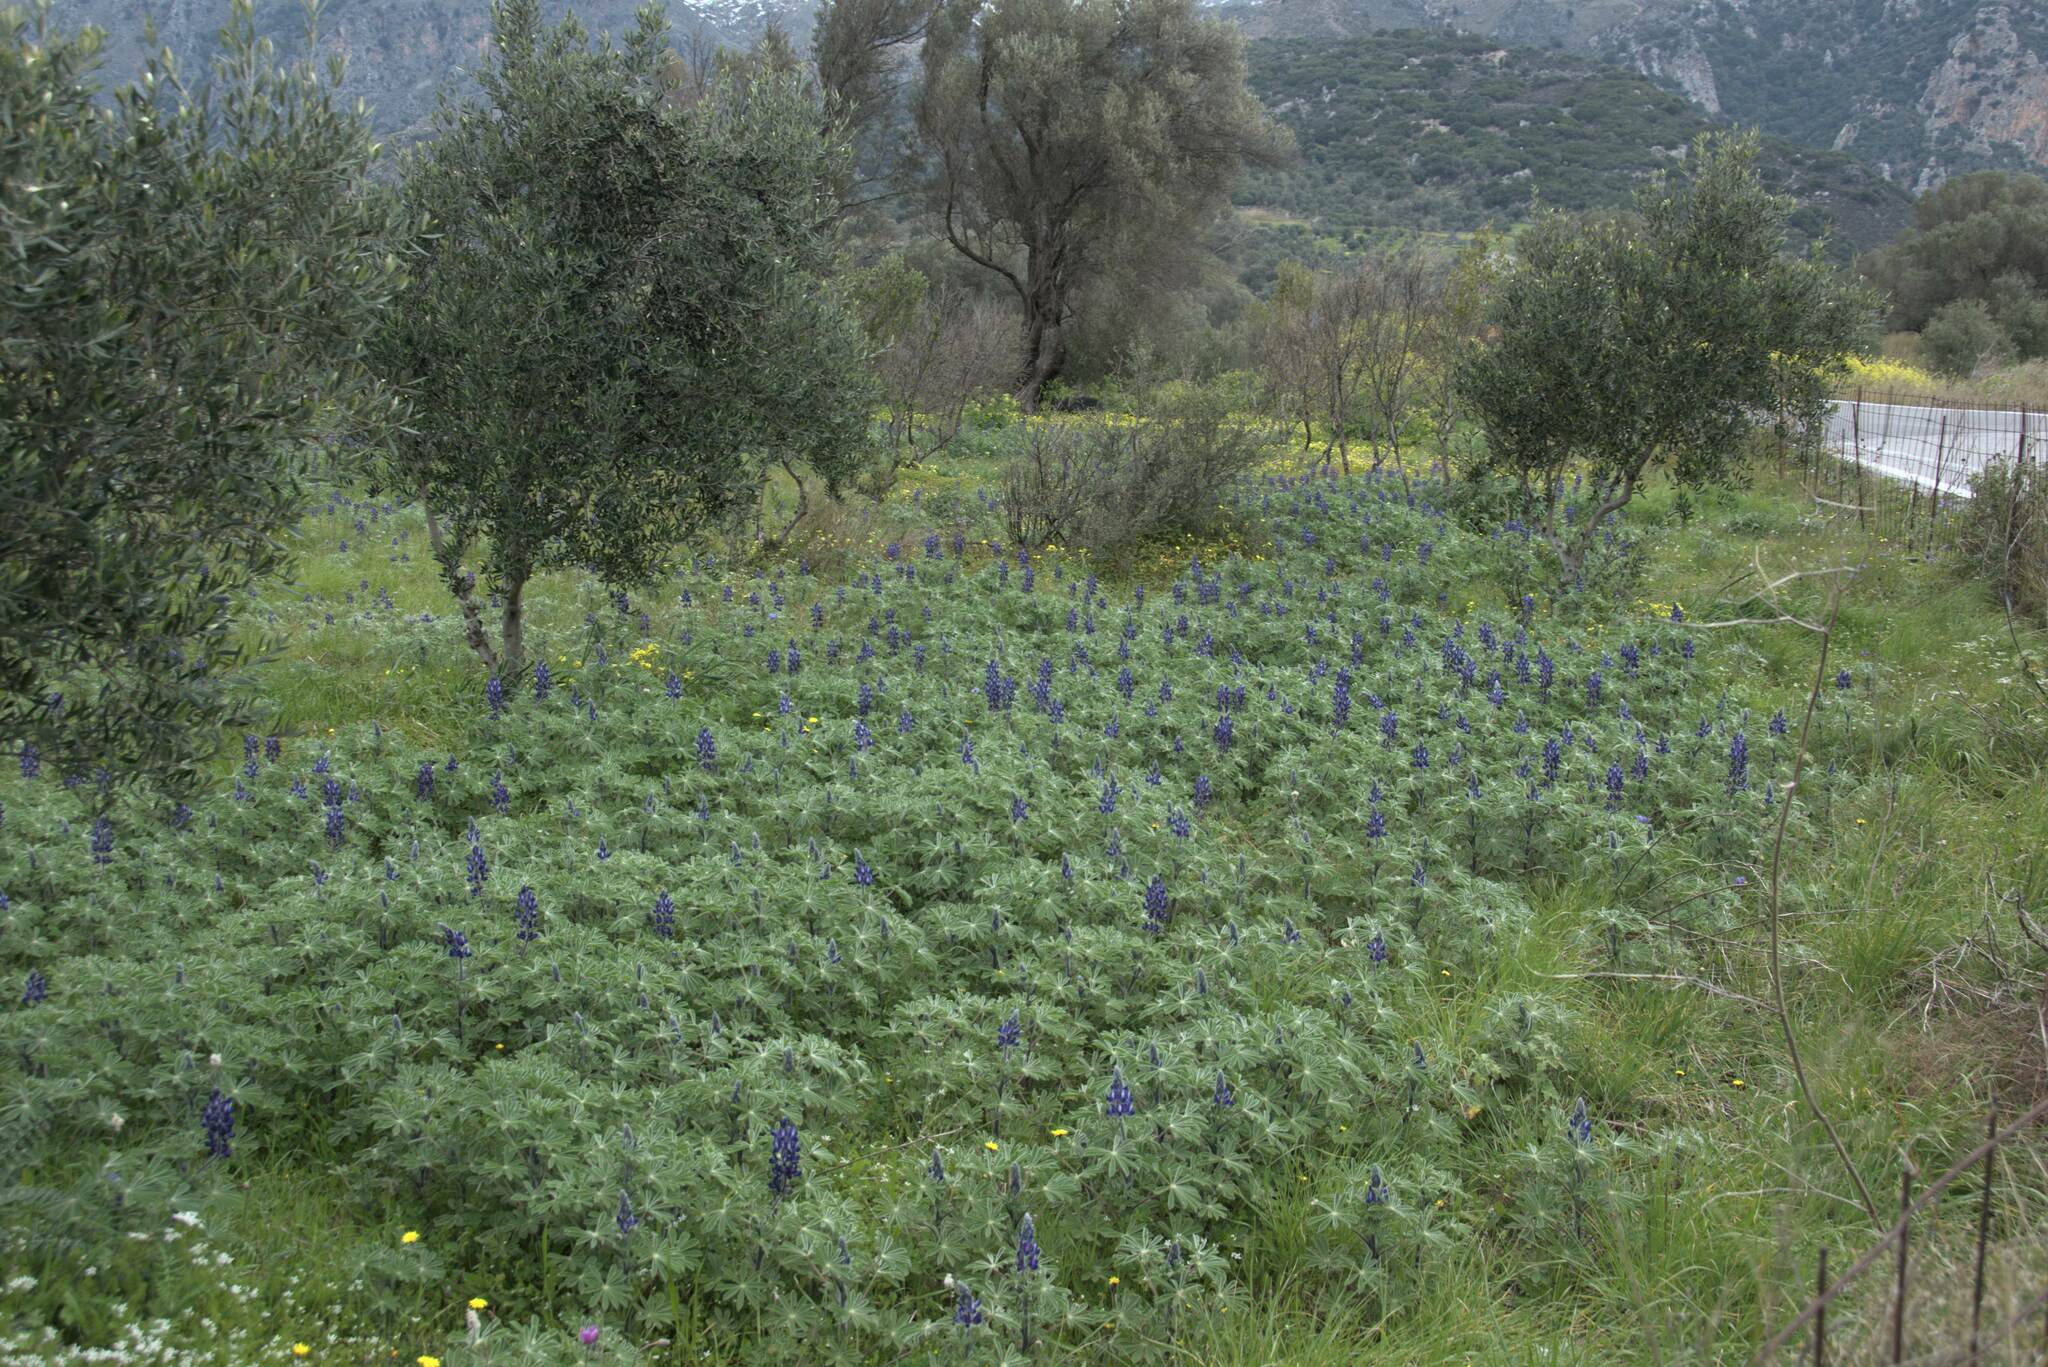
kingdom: Plantae
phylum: Tracheophyta
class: Magnoliopsida
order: Fabales
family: Fabaceae
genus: Lupinus
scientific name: Lupinus pilosus
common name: Blue lupine
